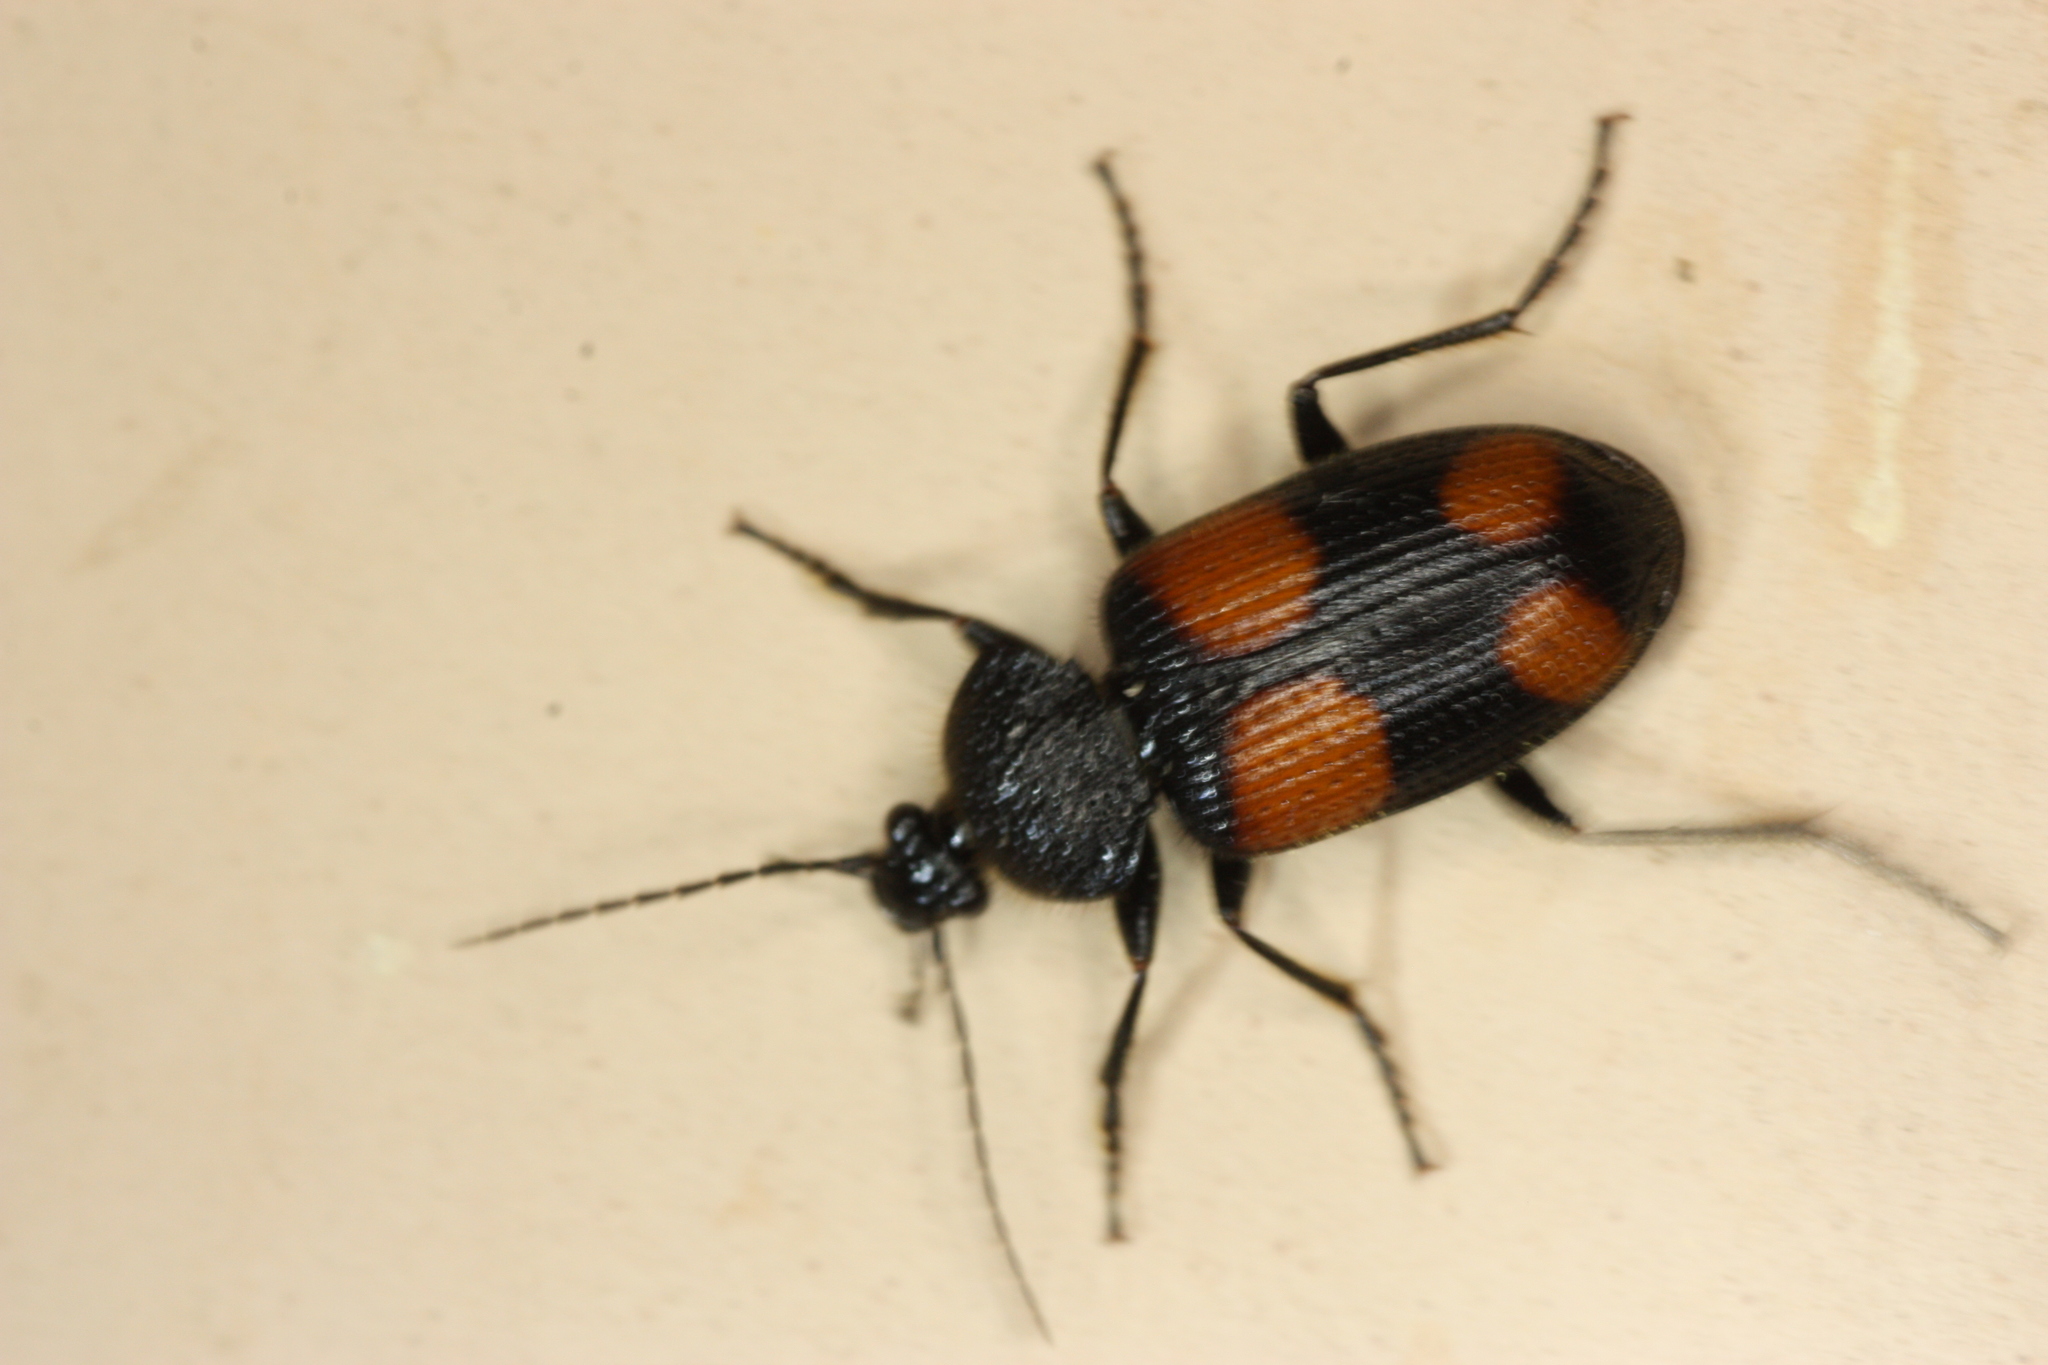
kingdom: Animalia
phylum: Arthropoda
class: Insecta
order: Coleoptera
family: Carabidae
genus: Panagaeus
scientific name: Panagaeus cruciger
